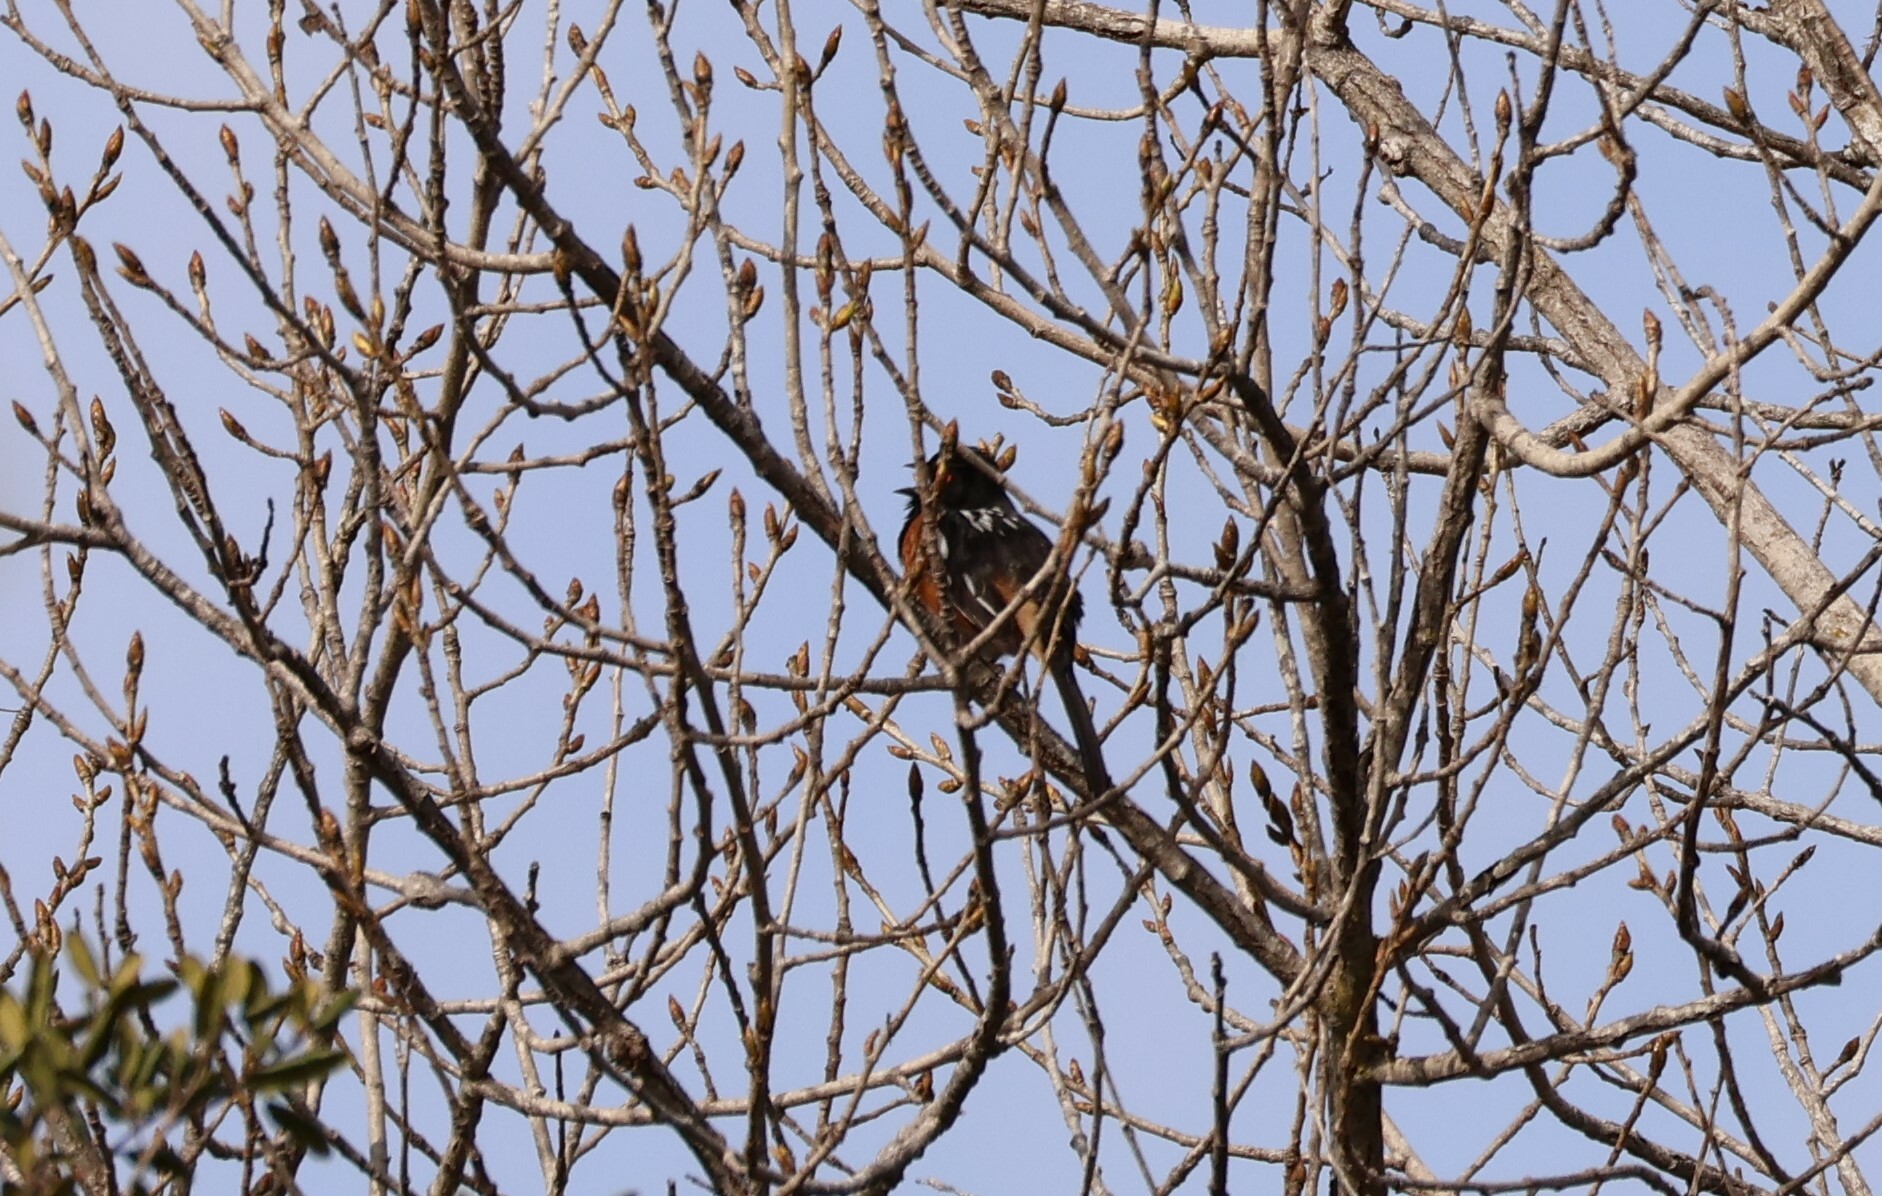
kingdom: Animalia
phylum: Chordata
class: Aves
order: Passeriformes
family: Passerellidae
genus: Pipilo
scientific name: Pipilo maculatus
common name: Spotted towhee
